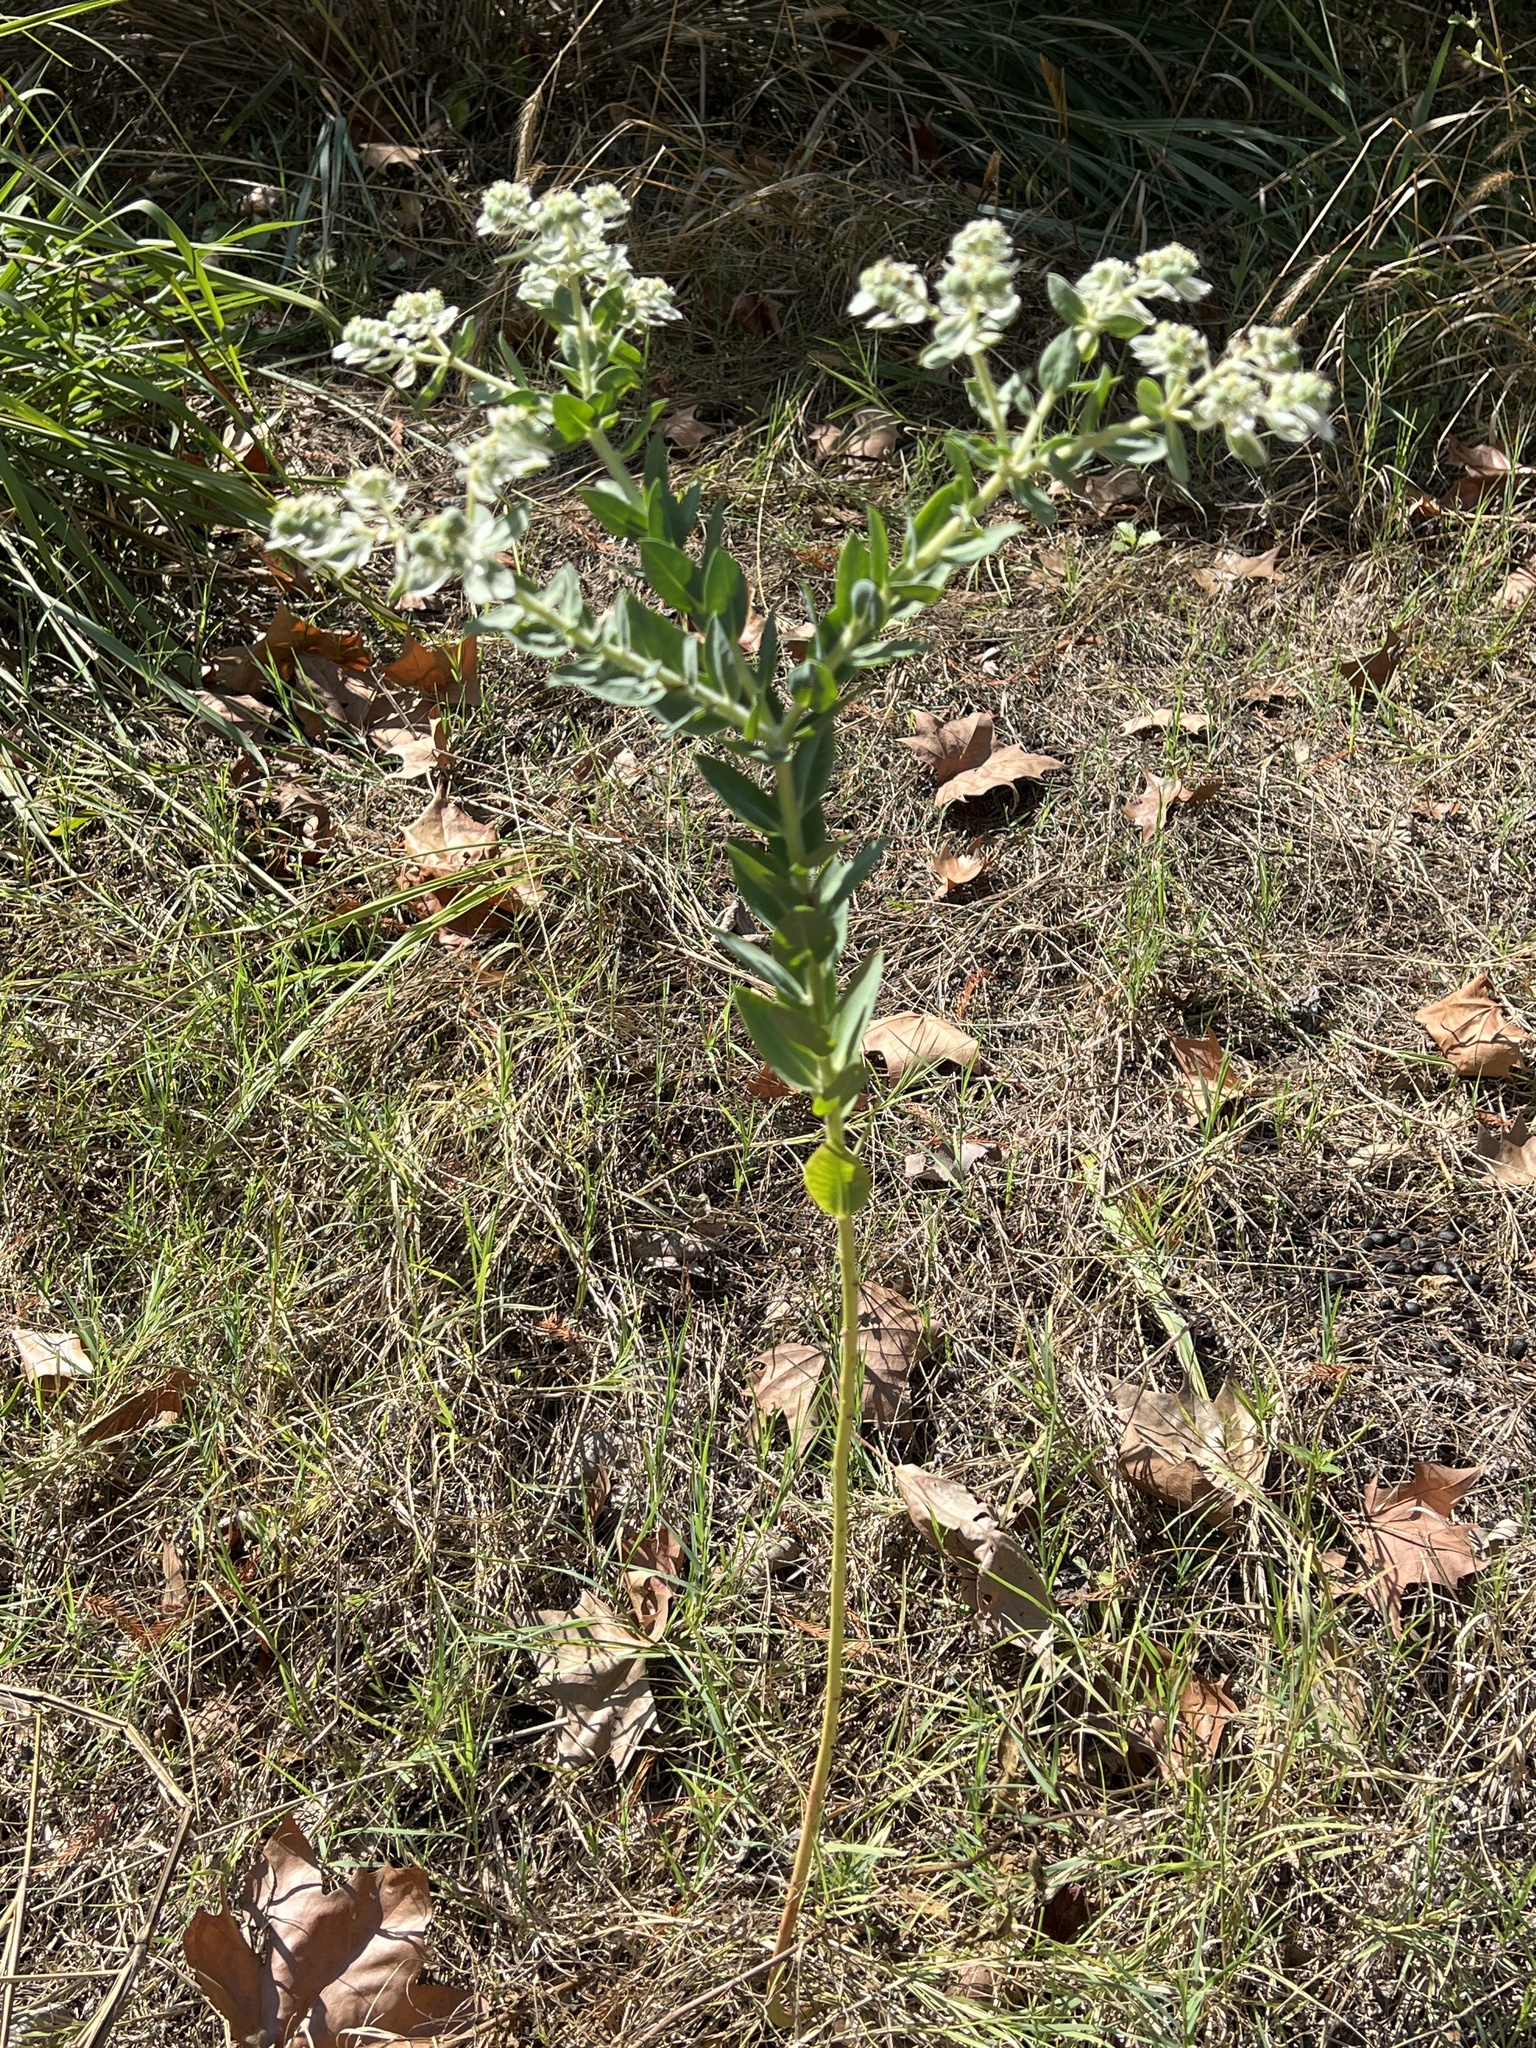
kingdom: Plantae
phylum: Tracheophyta
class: Magnoliopsida
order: Malpighiales
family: Euphorbiaceae
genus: Euphorbia
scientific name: Euphorbia marginata
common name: Ghostweed
